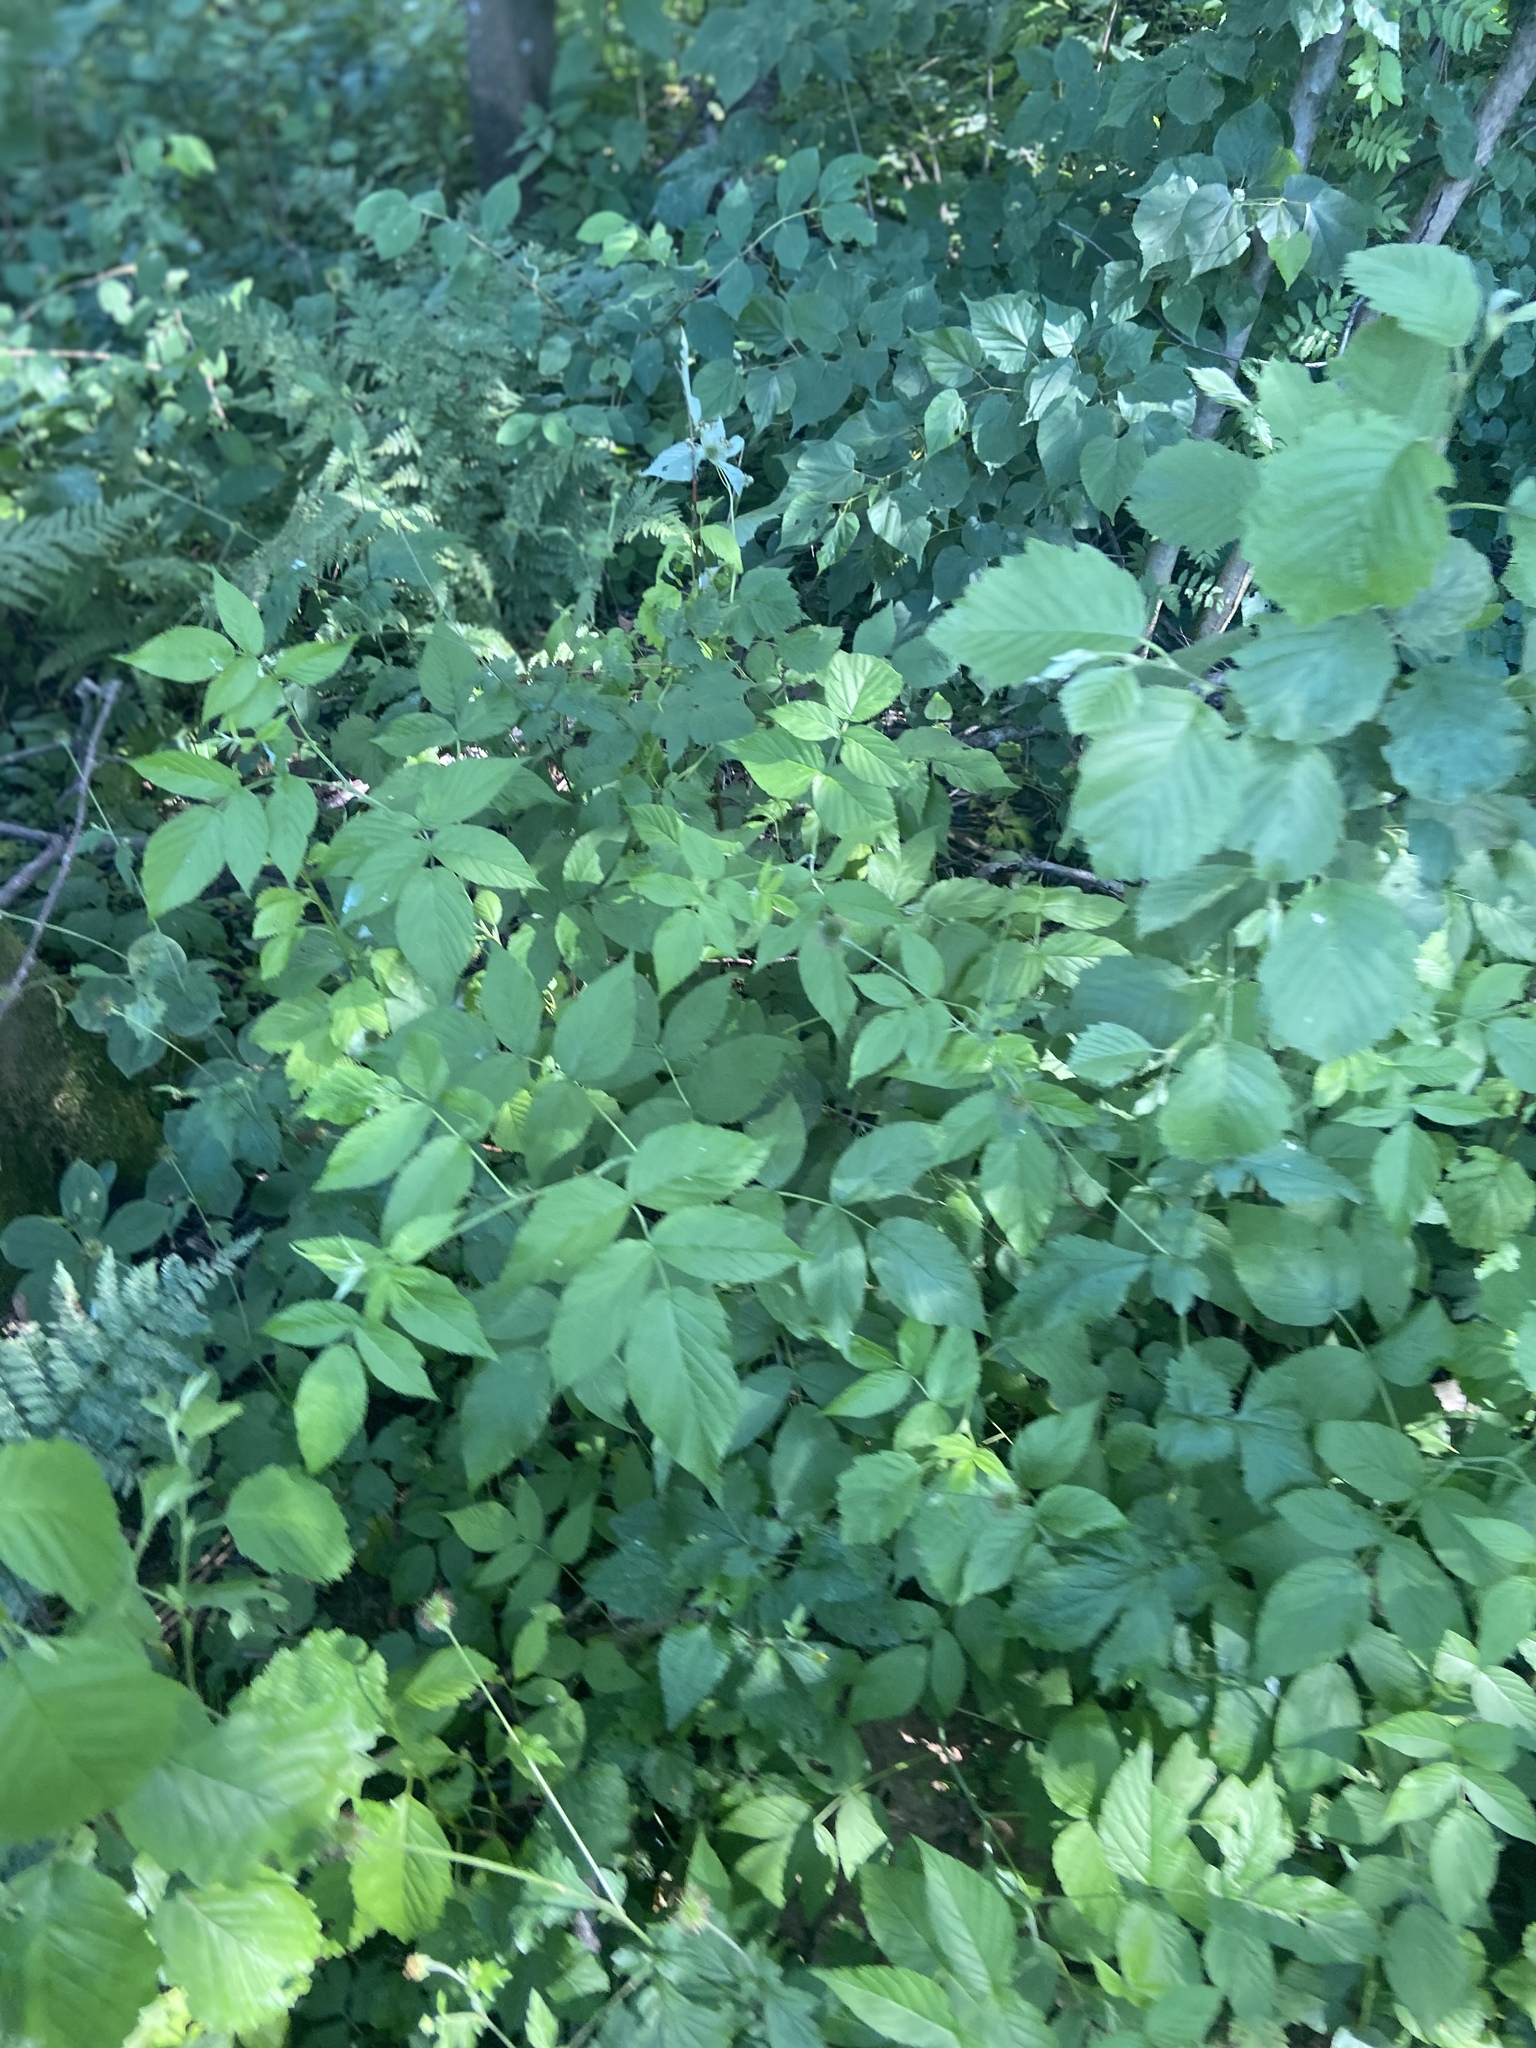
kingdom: Plantae
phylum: Tracheophyta
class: Magnoliopsida
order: Rosales
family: Rosaceae
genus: Rubus
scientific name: Rubus idaeus
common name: Raspberry
